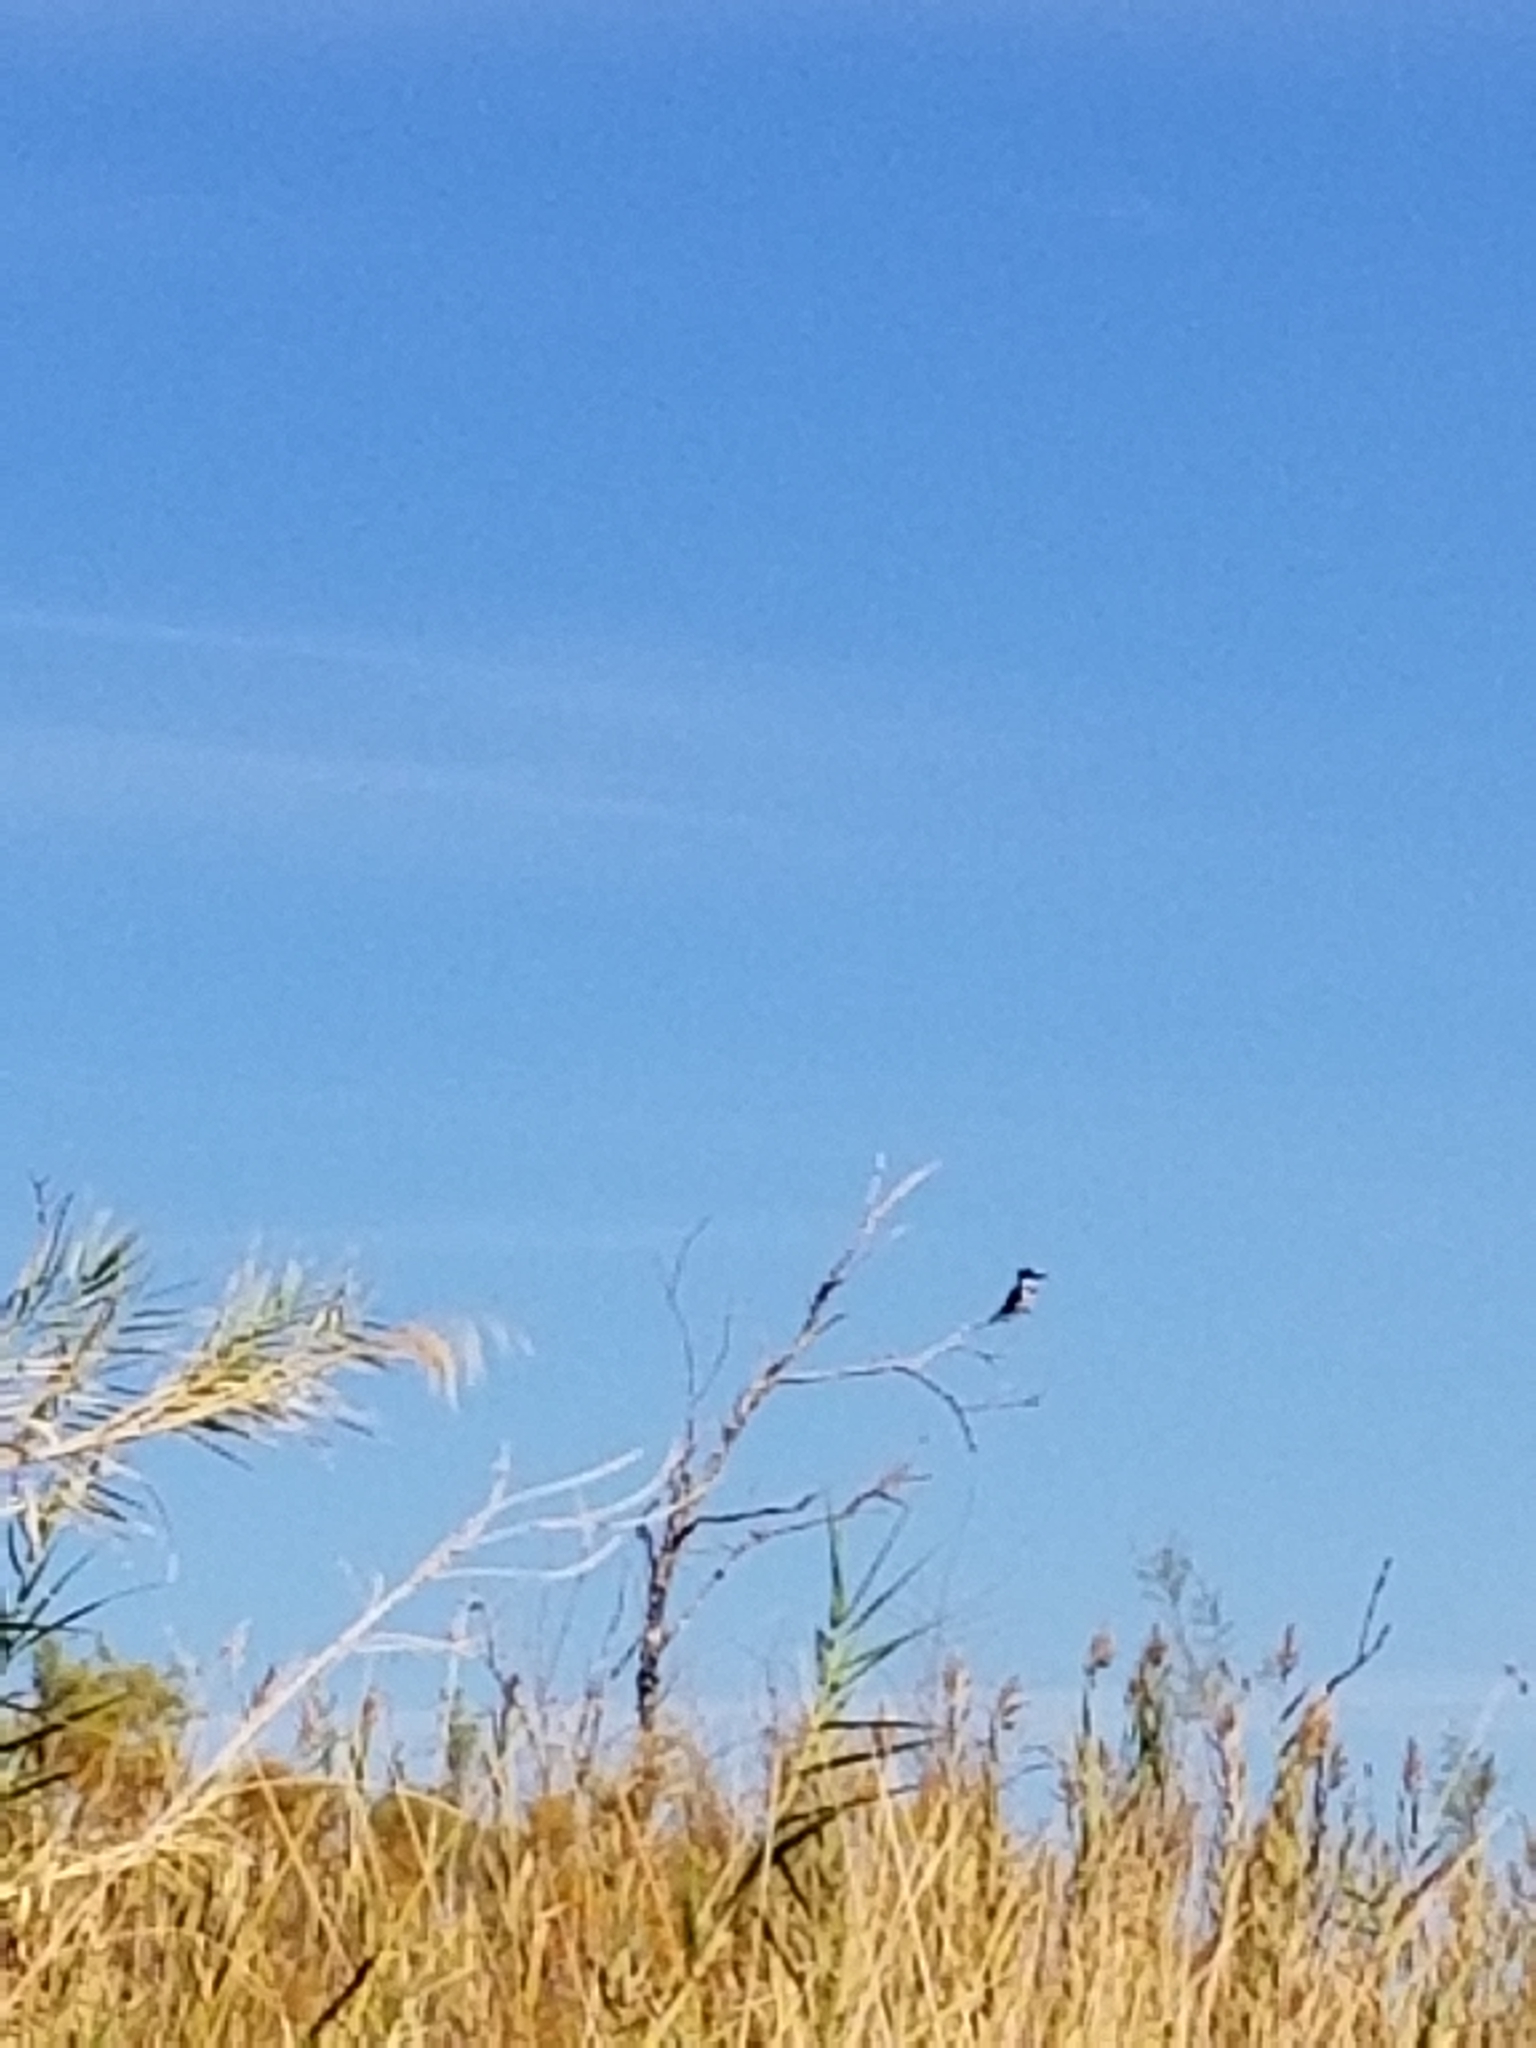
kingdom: Animalia
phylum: Chordata
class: Aves
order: Coraciiformes
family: Alcedinidae
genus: Megaceryle
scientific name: Megaceryle alcyon
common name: Belted kingfisher
